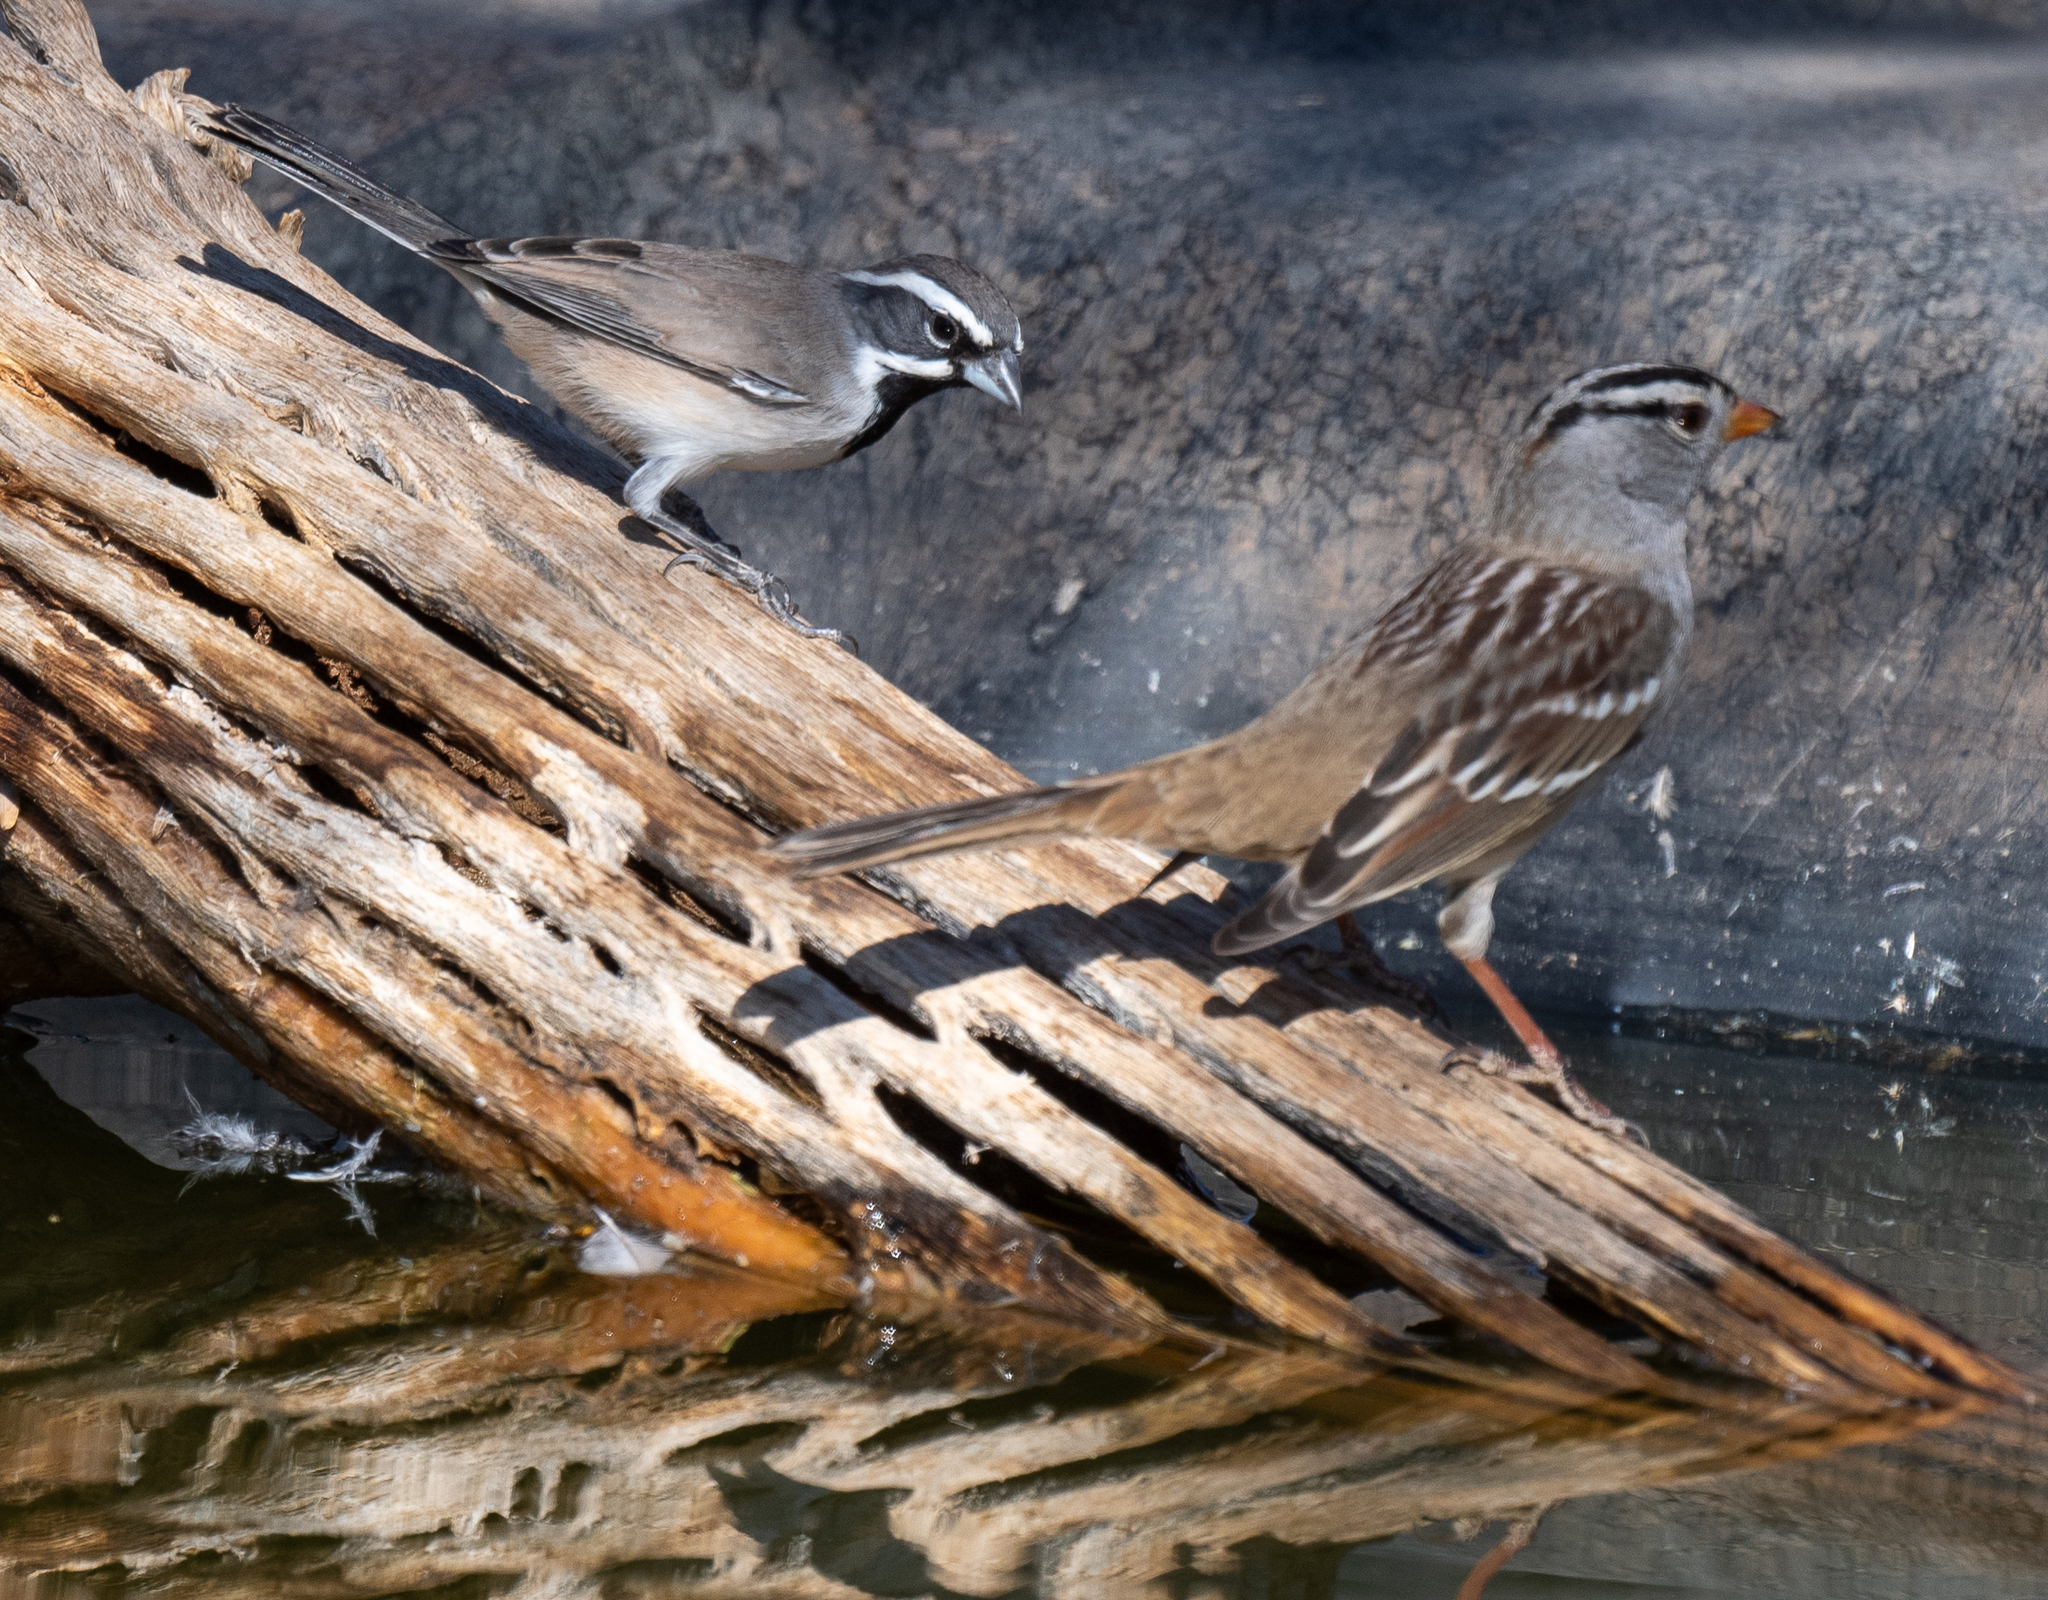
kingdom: Animalia
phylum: Chordata
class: Aves
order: Passeriformes
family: Passerellidae
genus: Zonotrichia
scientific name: Zonotrichia leucophrys
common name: White-crowned sparrow
